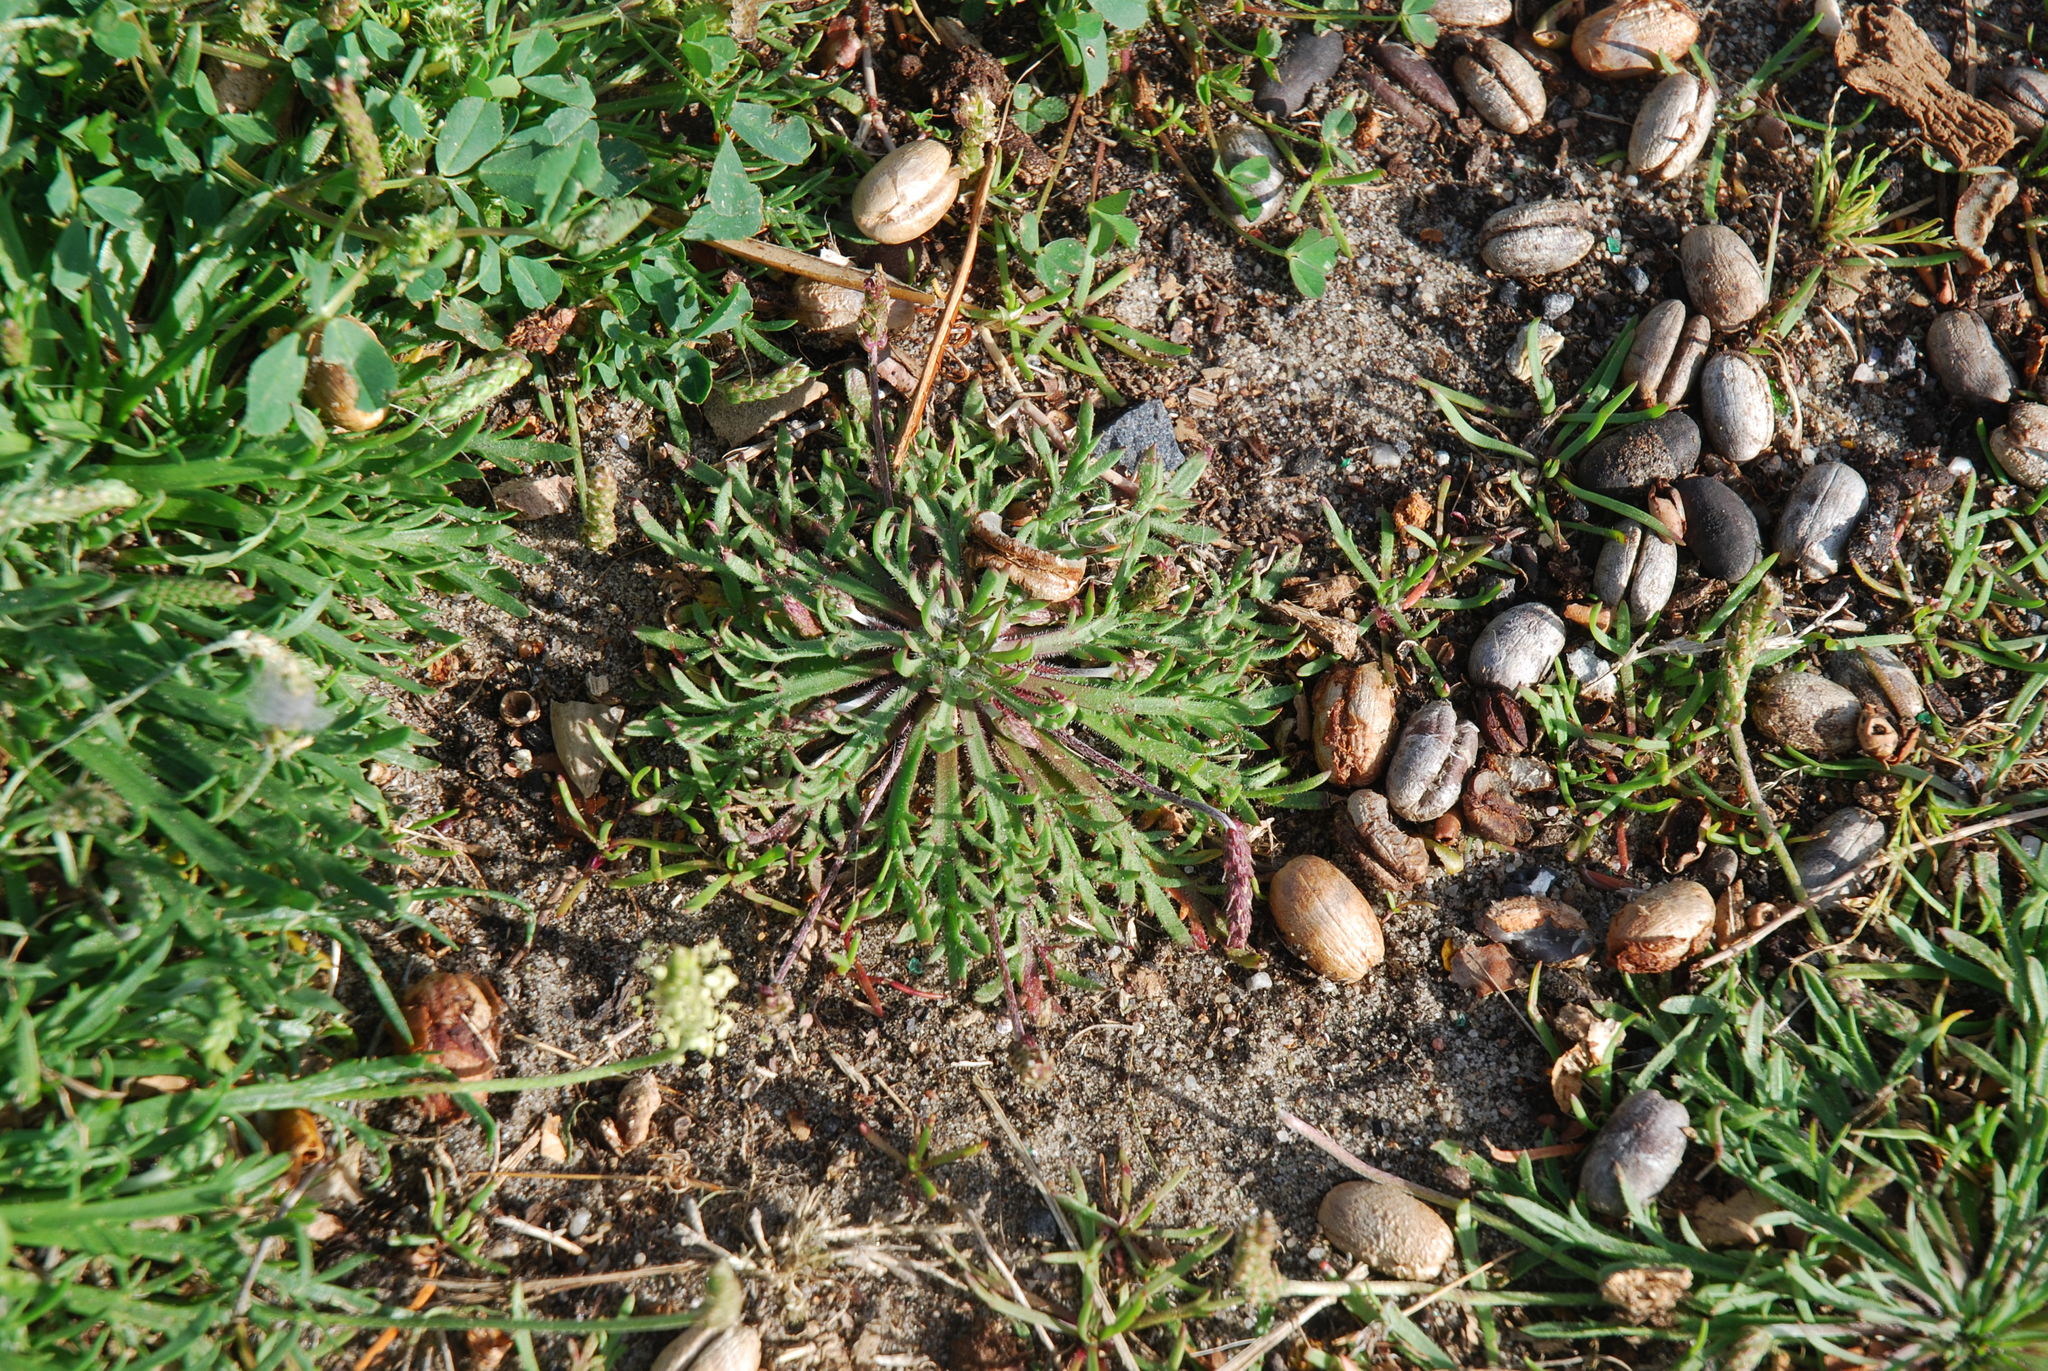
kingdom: Plantae
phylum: Tracheophyta
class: Magnoliopsida
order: Lamiales
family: Plantaginaceae
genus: Plantago
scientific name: Plantago coronopus
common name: Buck's-horn plantain
